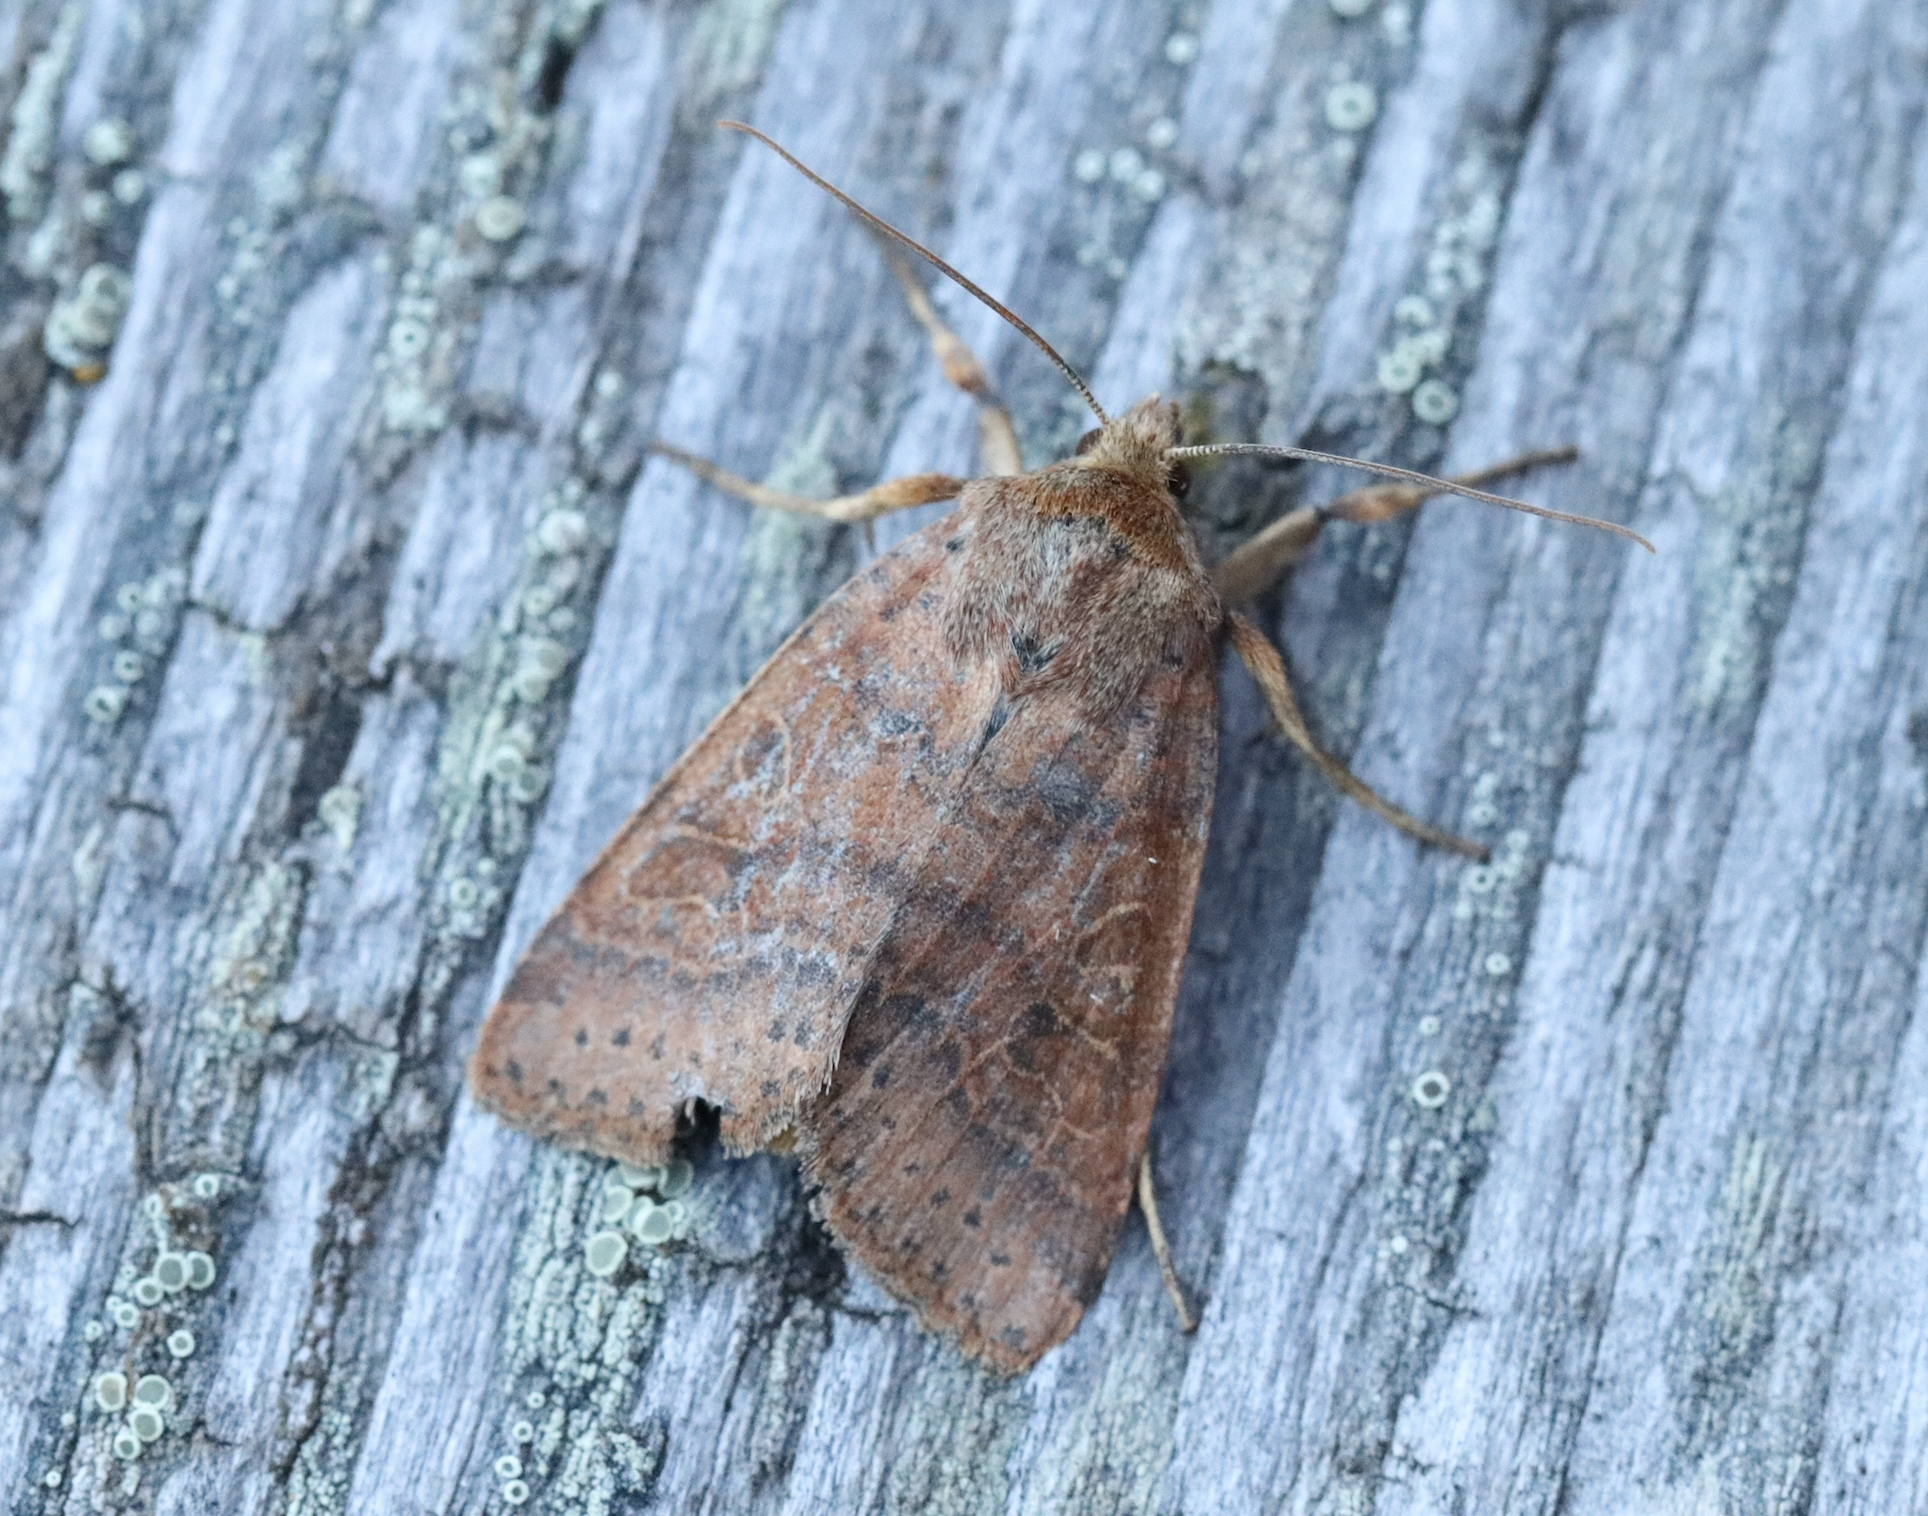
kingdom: Animalia
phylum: Arthropoda
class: Insecta
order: Lepidoptera
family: Noctuidae
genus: Agrochola
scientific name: Agrochola nitida
